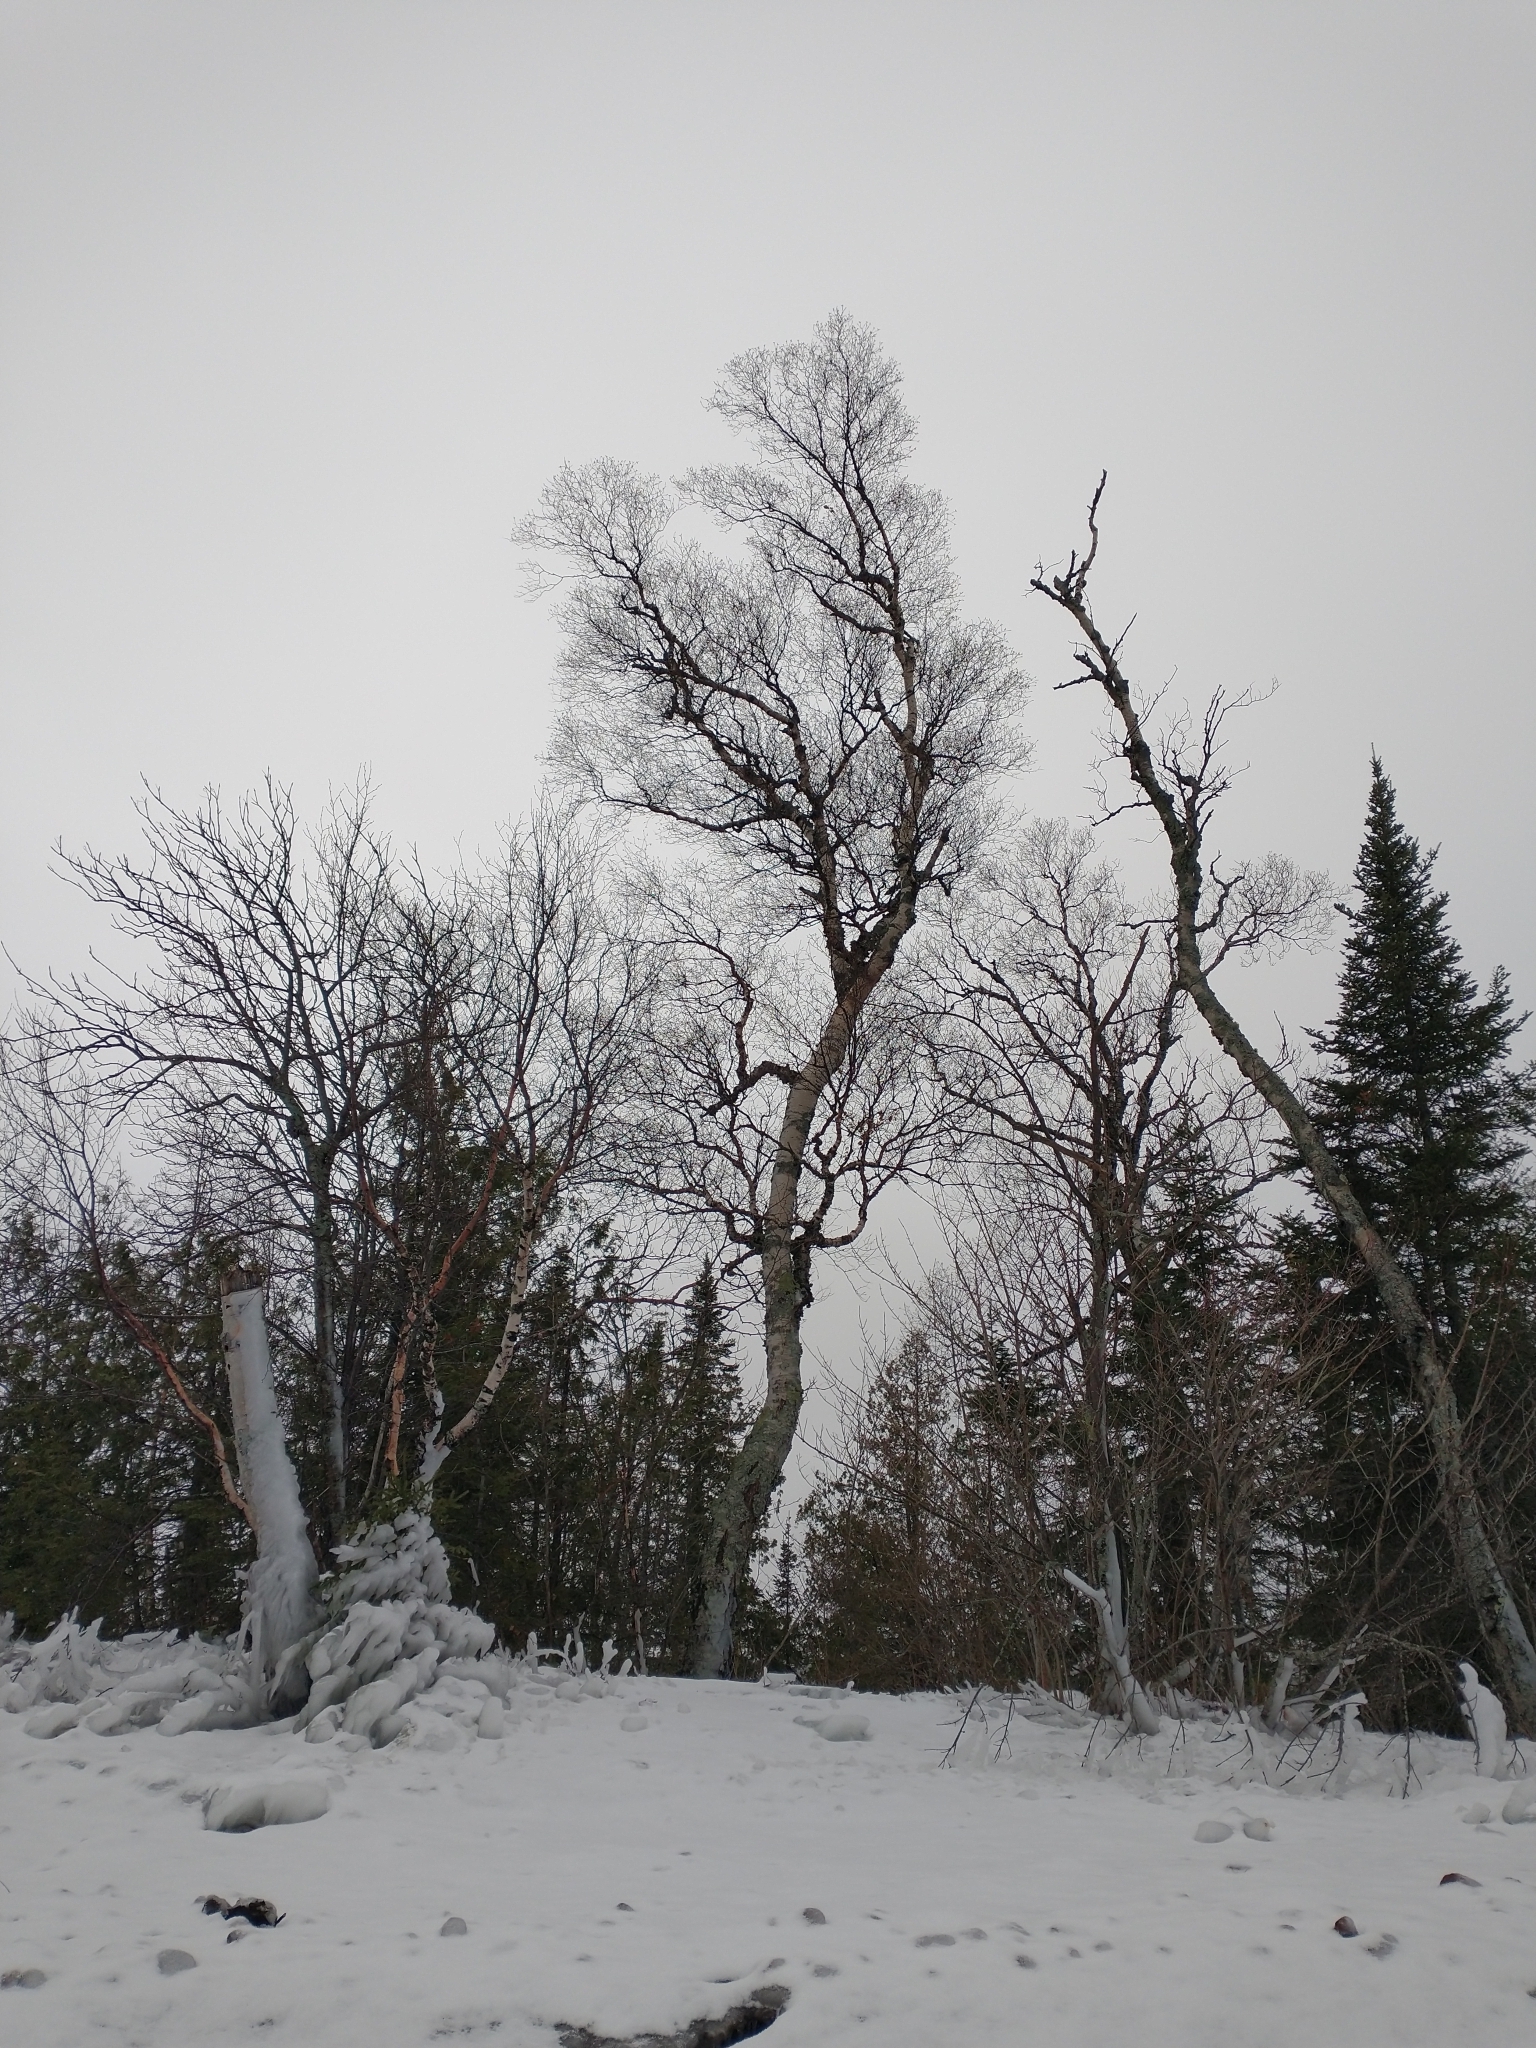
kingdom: Plantae
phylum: Tracheophyta
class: Magnoliopsida
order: Fagales
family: Betulaceae
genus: Betula
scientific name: Betula papyrifera
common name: Paper birch
